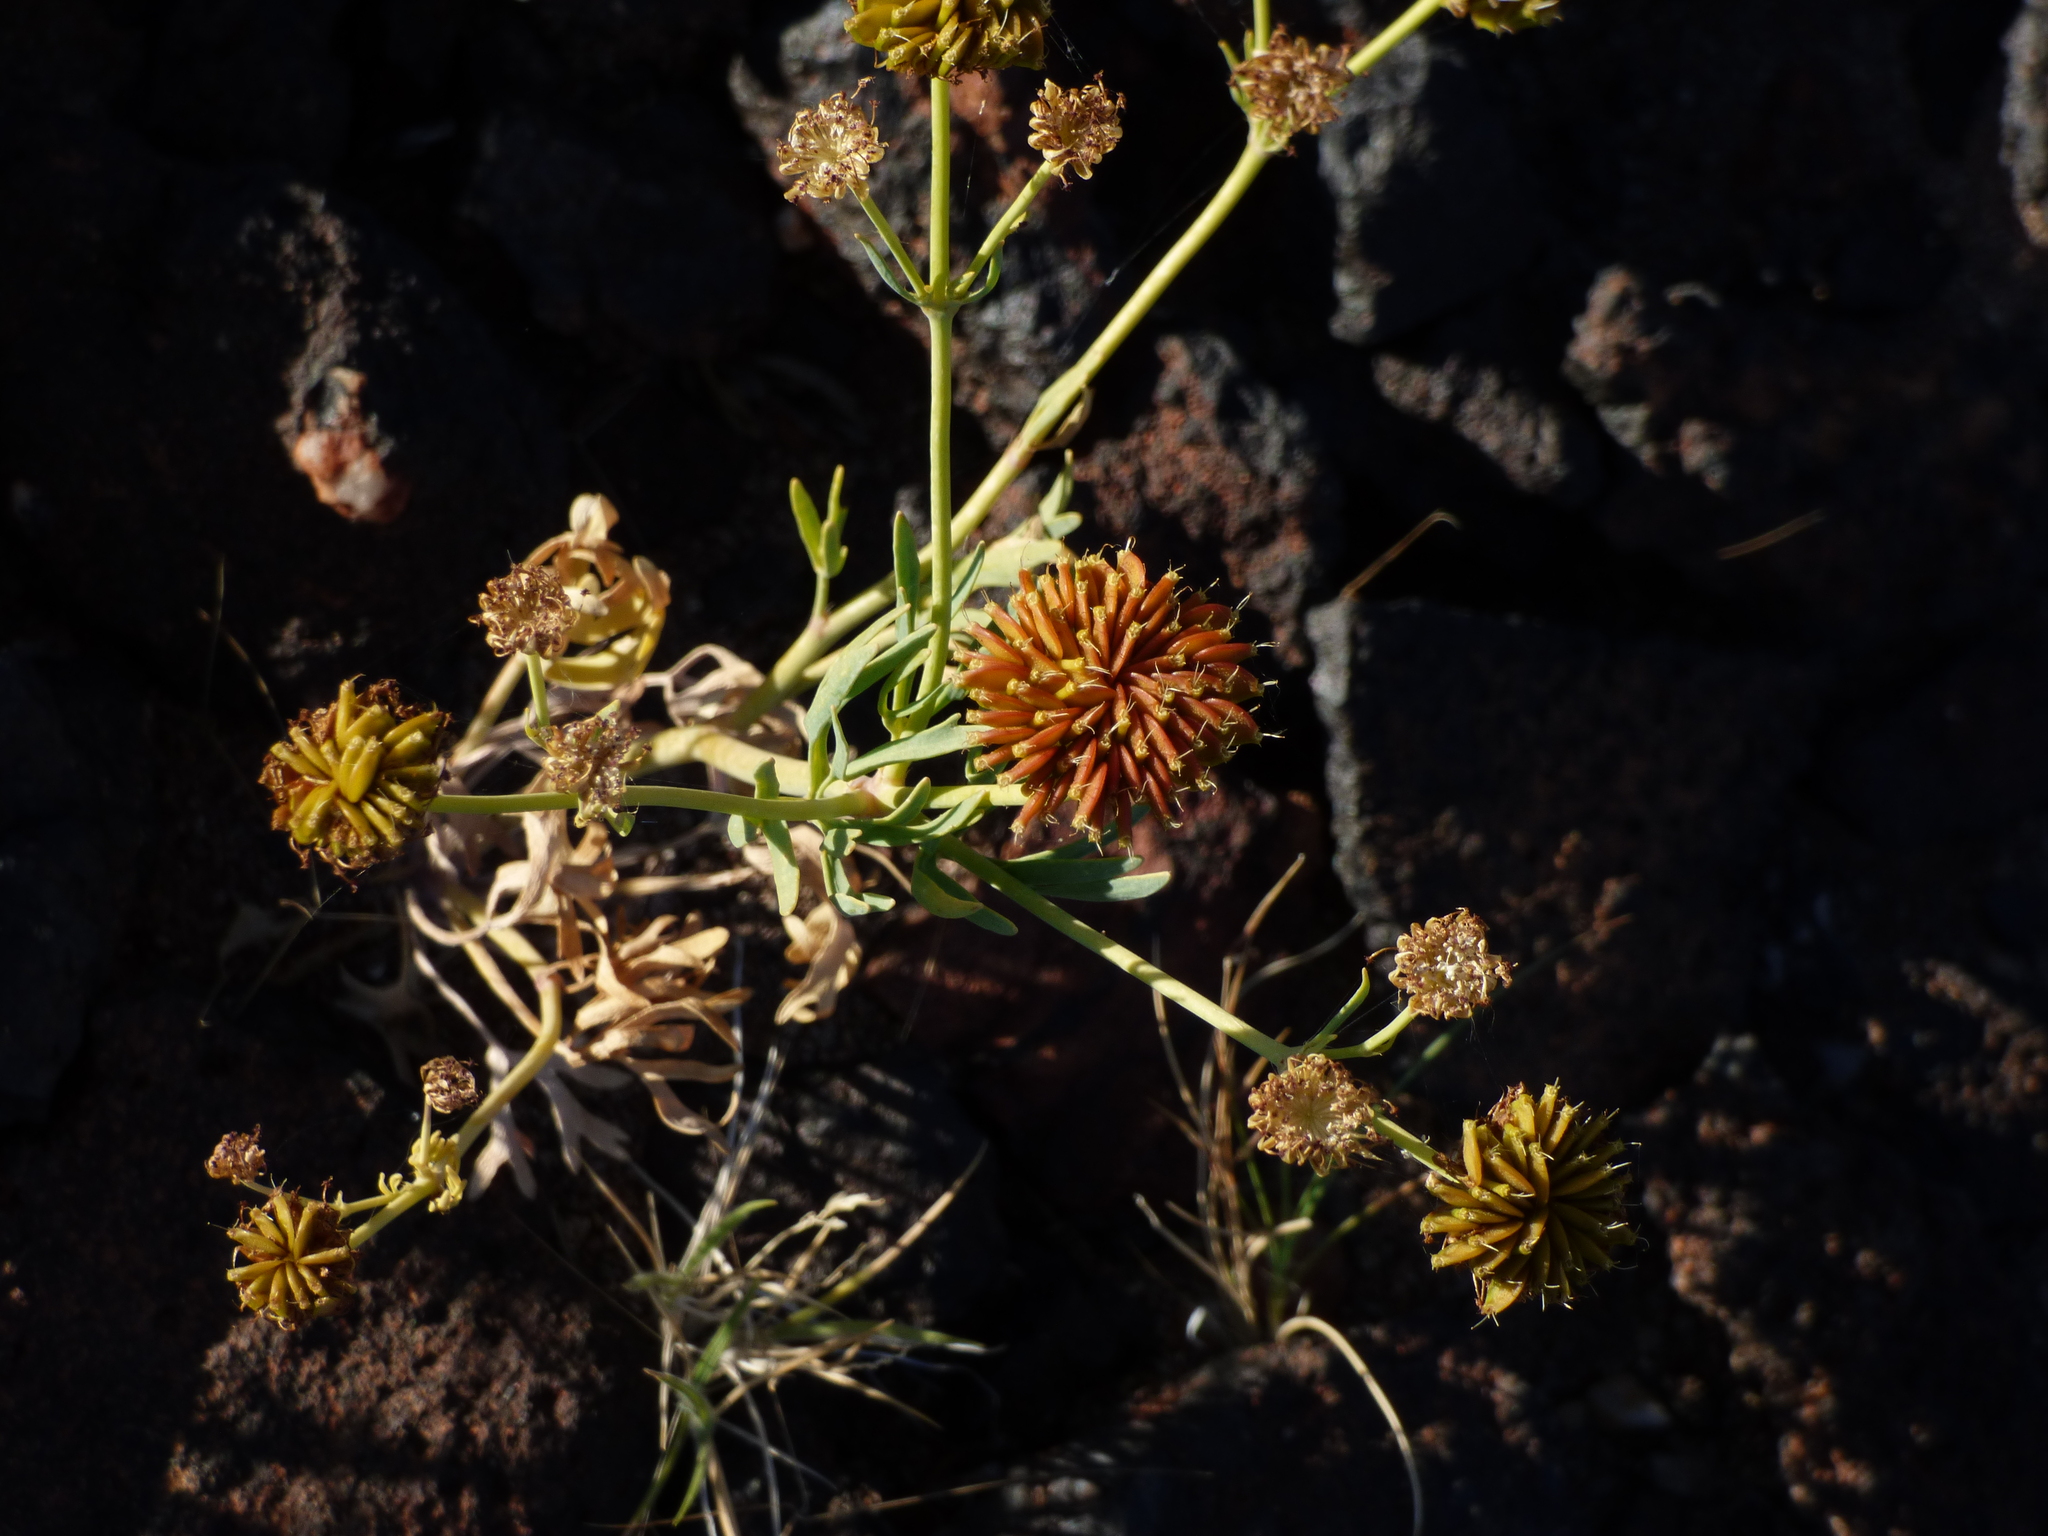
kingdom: Plantae
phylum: Tracheophyta
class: Magnoliopsida
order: Apiales
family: Araliaceae
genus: Trachymene
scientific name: Trachymene glaucifolia
